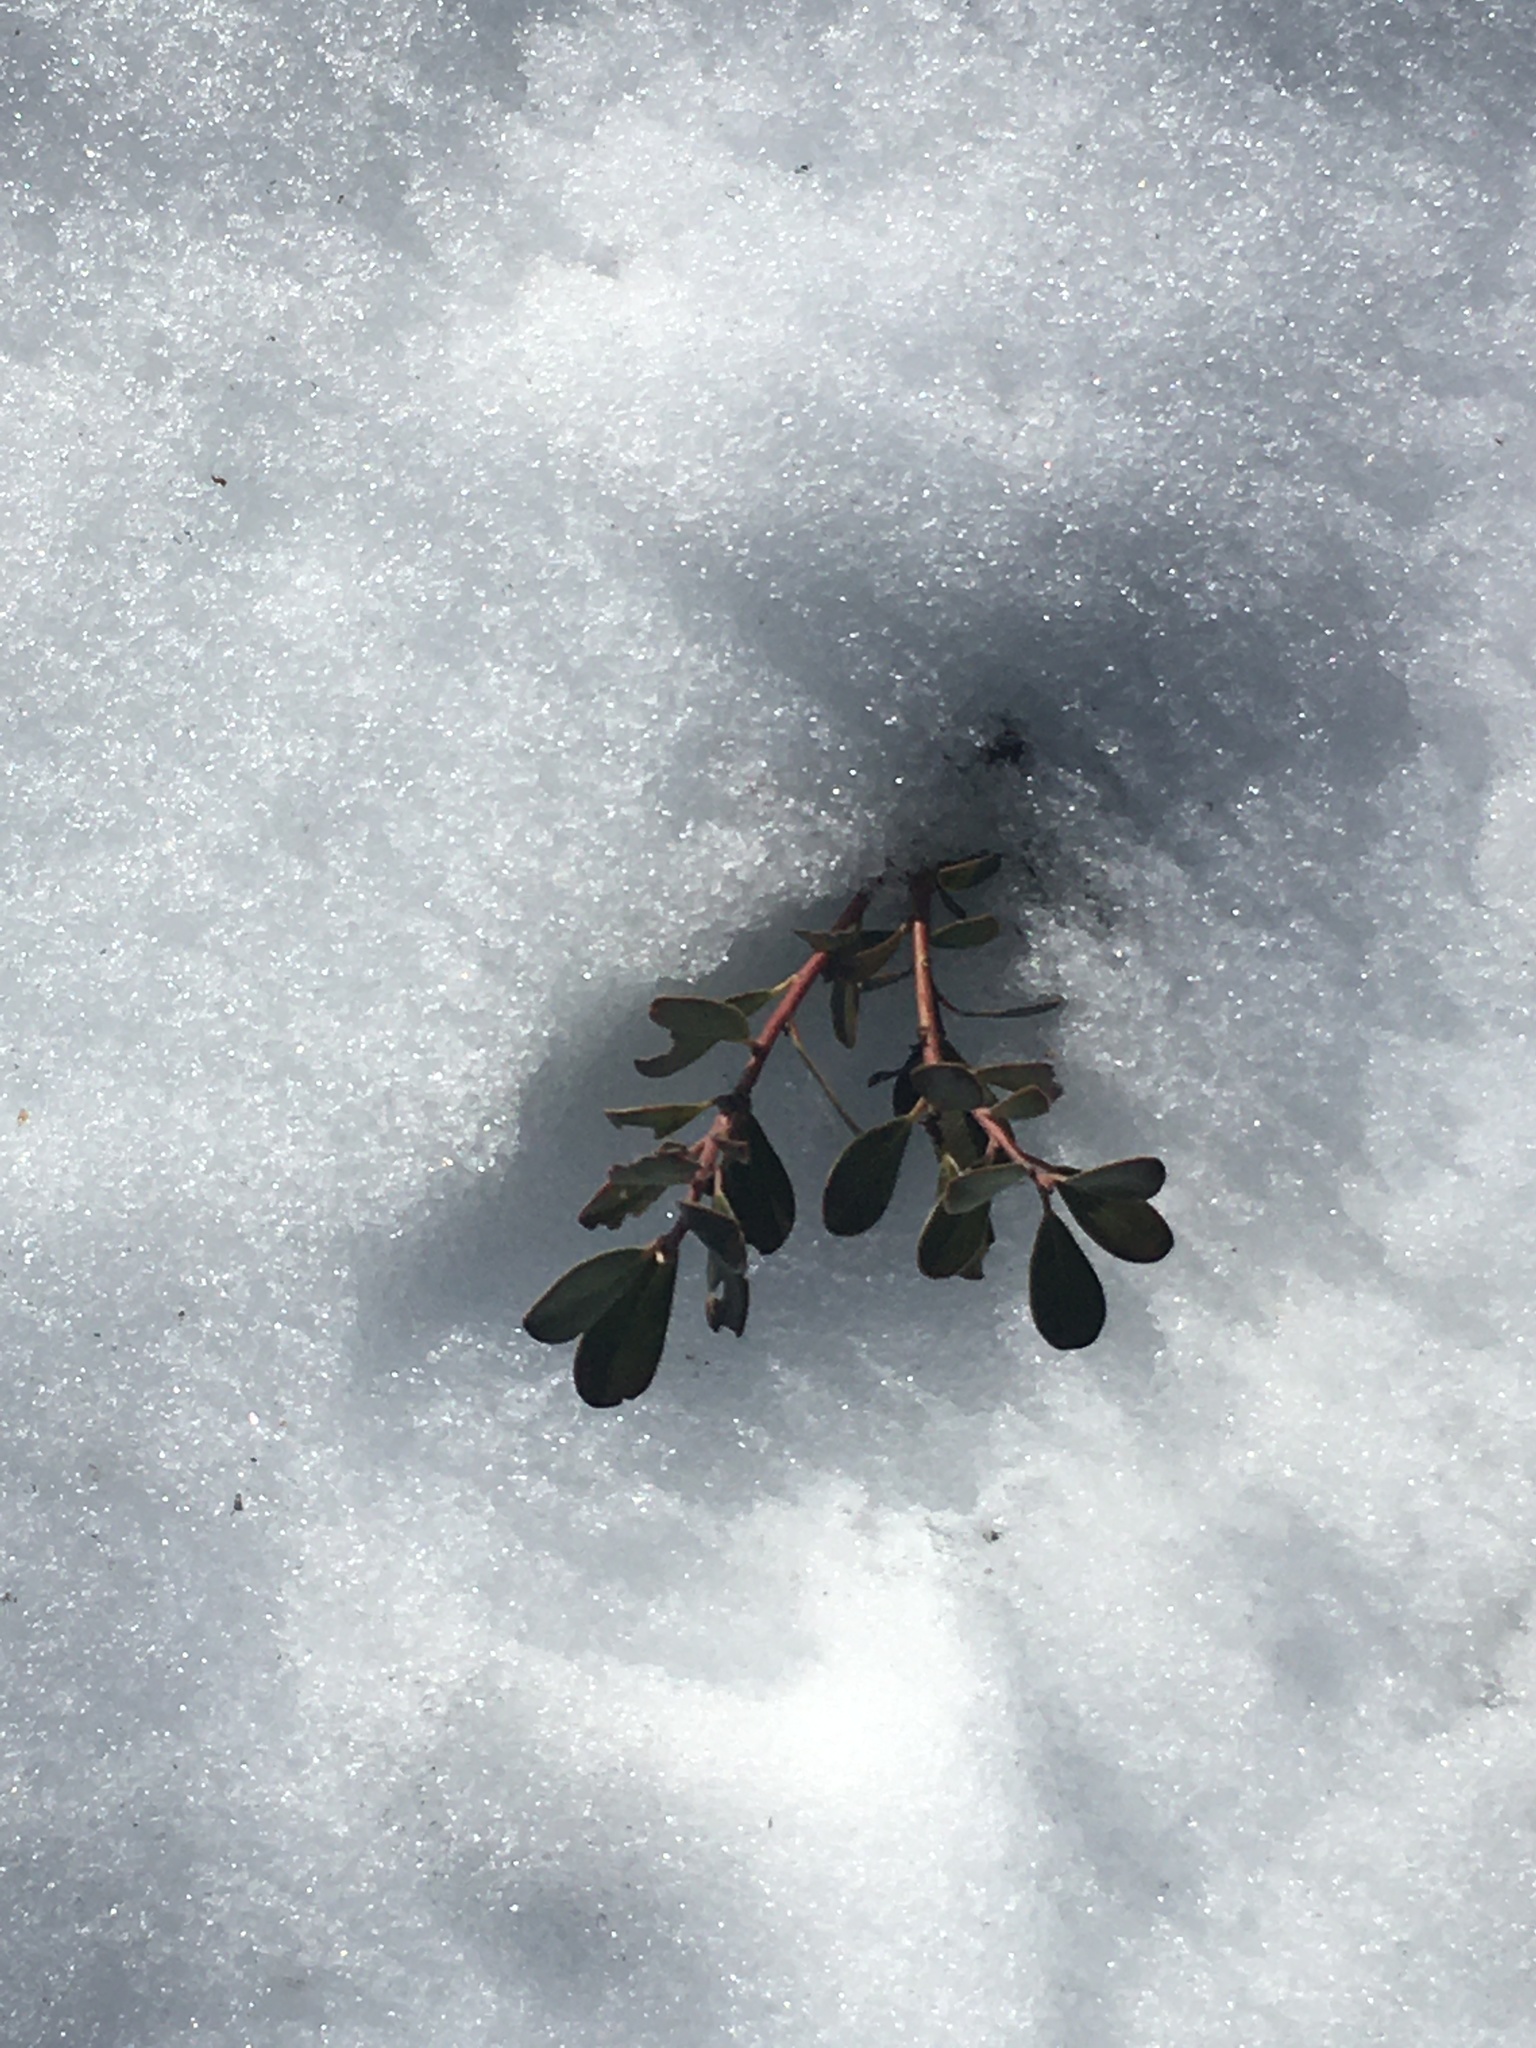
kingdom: Plantae
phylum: Tracheophyta
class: Magnoliopsida
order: Ericales
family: Ericaceae
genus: Arctostaphylos
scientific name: Arctostaphylos uva-ursi
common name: Bearberry
